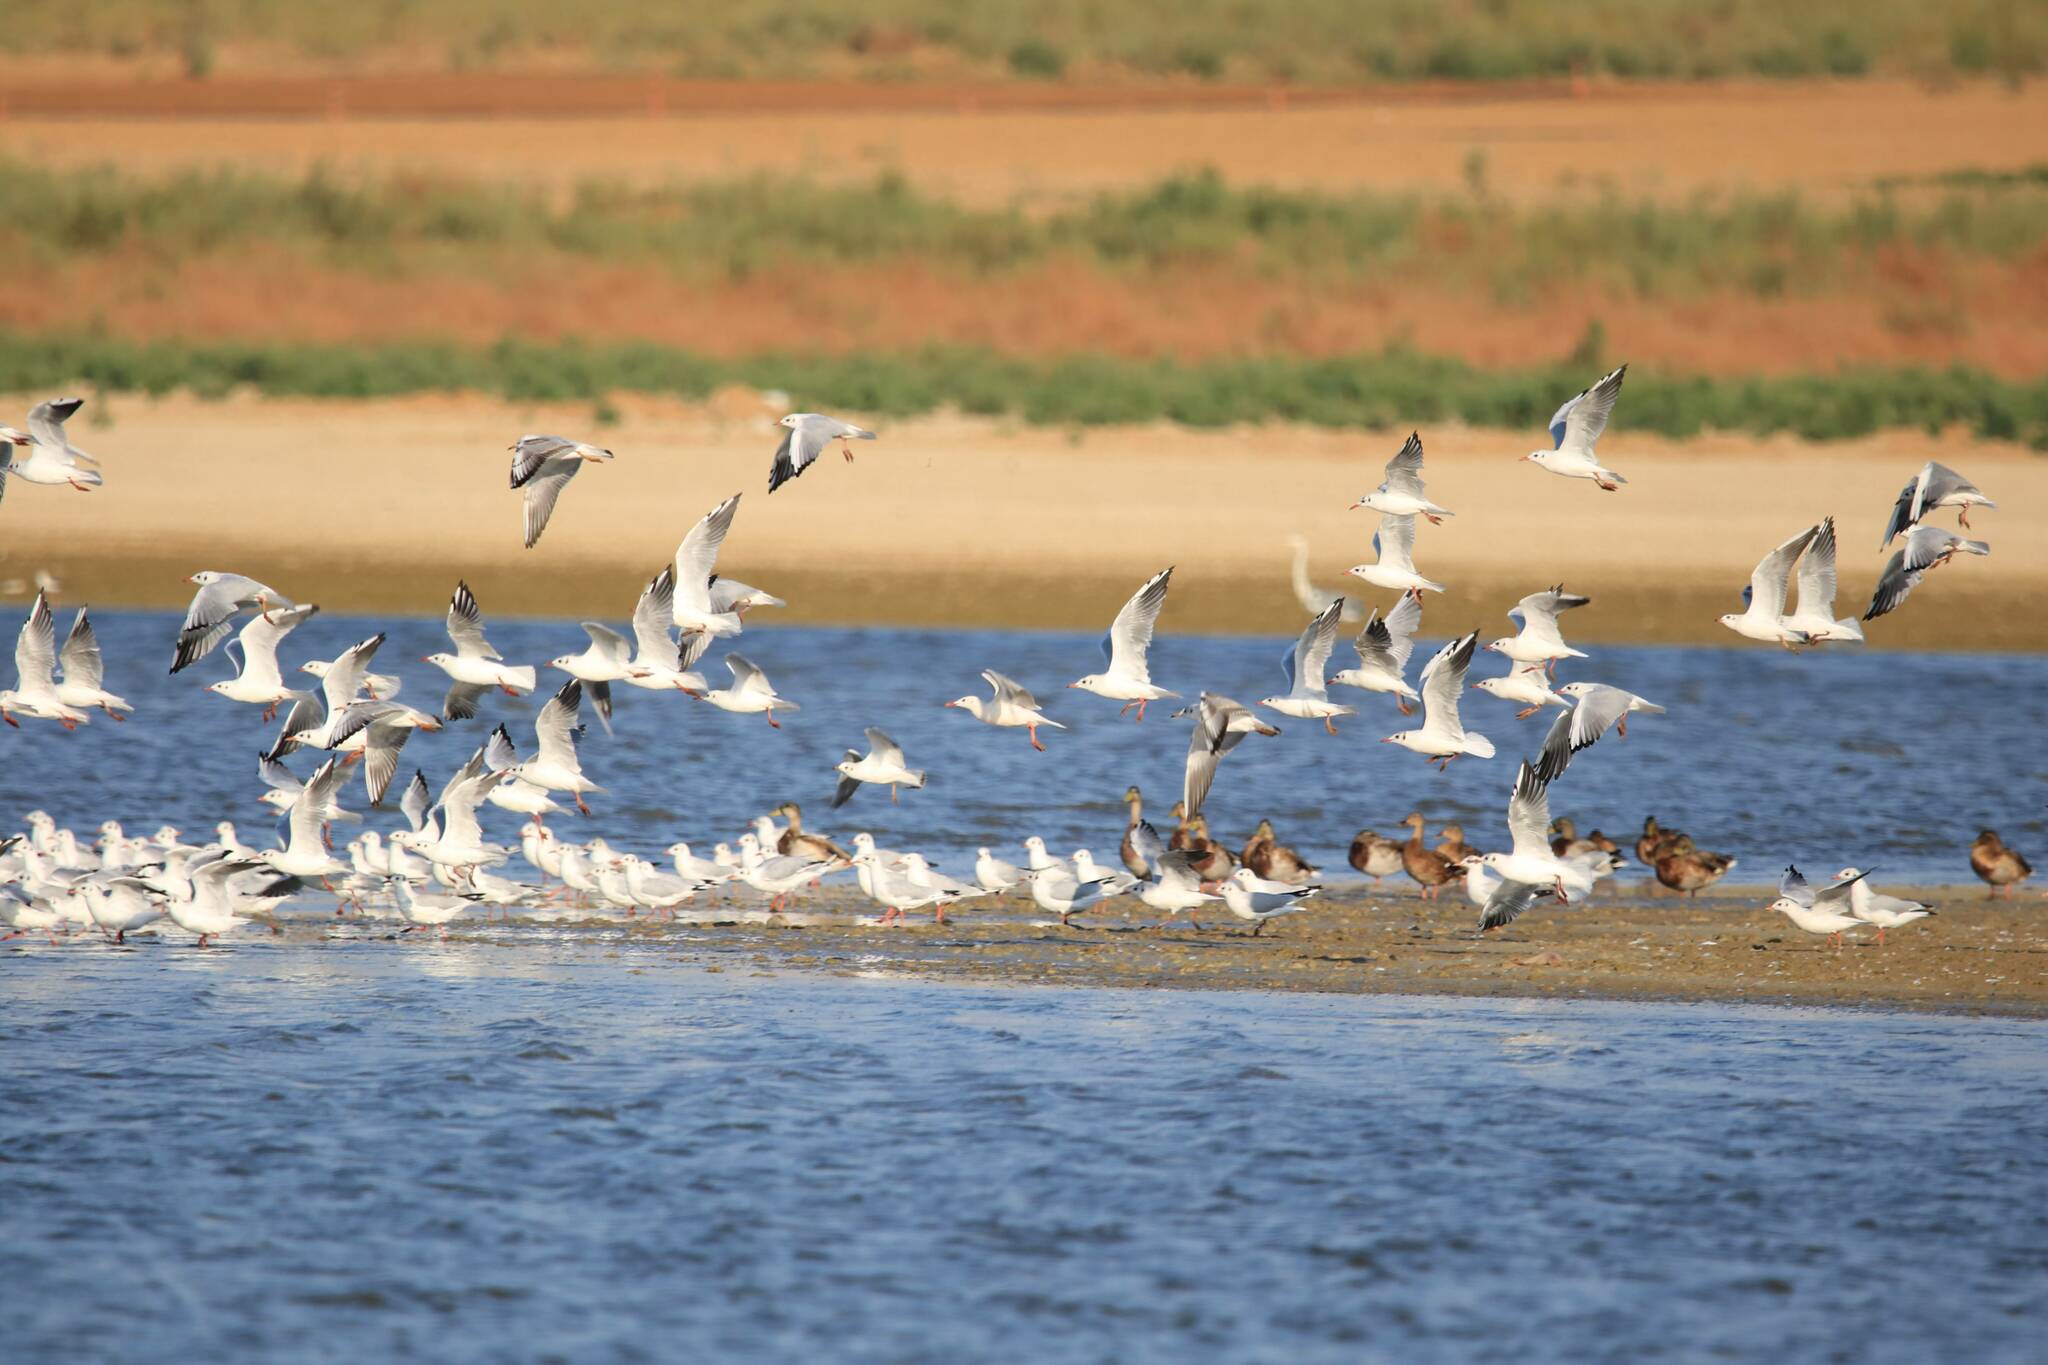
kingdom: Animalia
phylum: Chordata
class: Aves
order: Charadriiformes
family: Laridae
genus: Chroicocephalus
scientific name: Chroicocephalus ridibundus
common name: Black-headed gull
